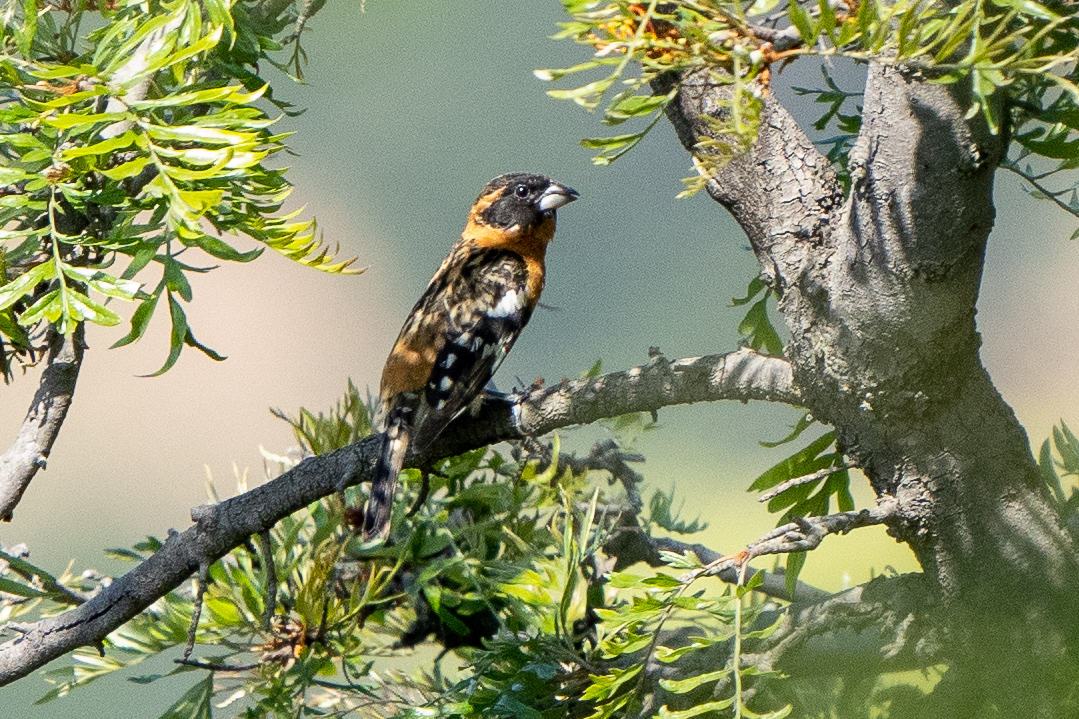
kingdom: Animalia
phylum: Chordata
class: Aves
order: Passeriformes
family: Cardinalidae
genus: Pheucticus
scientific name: Pheucticus melanocephalus
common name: Black-headed grosbeak
